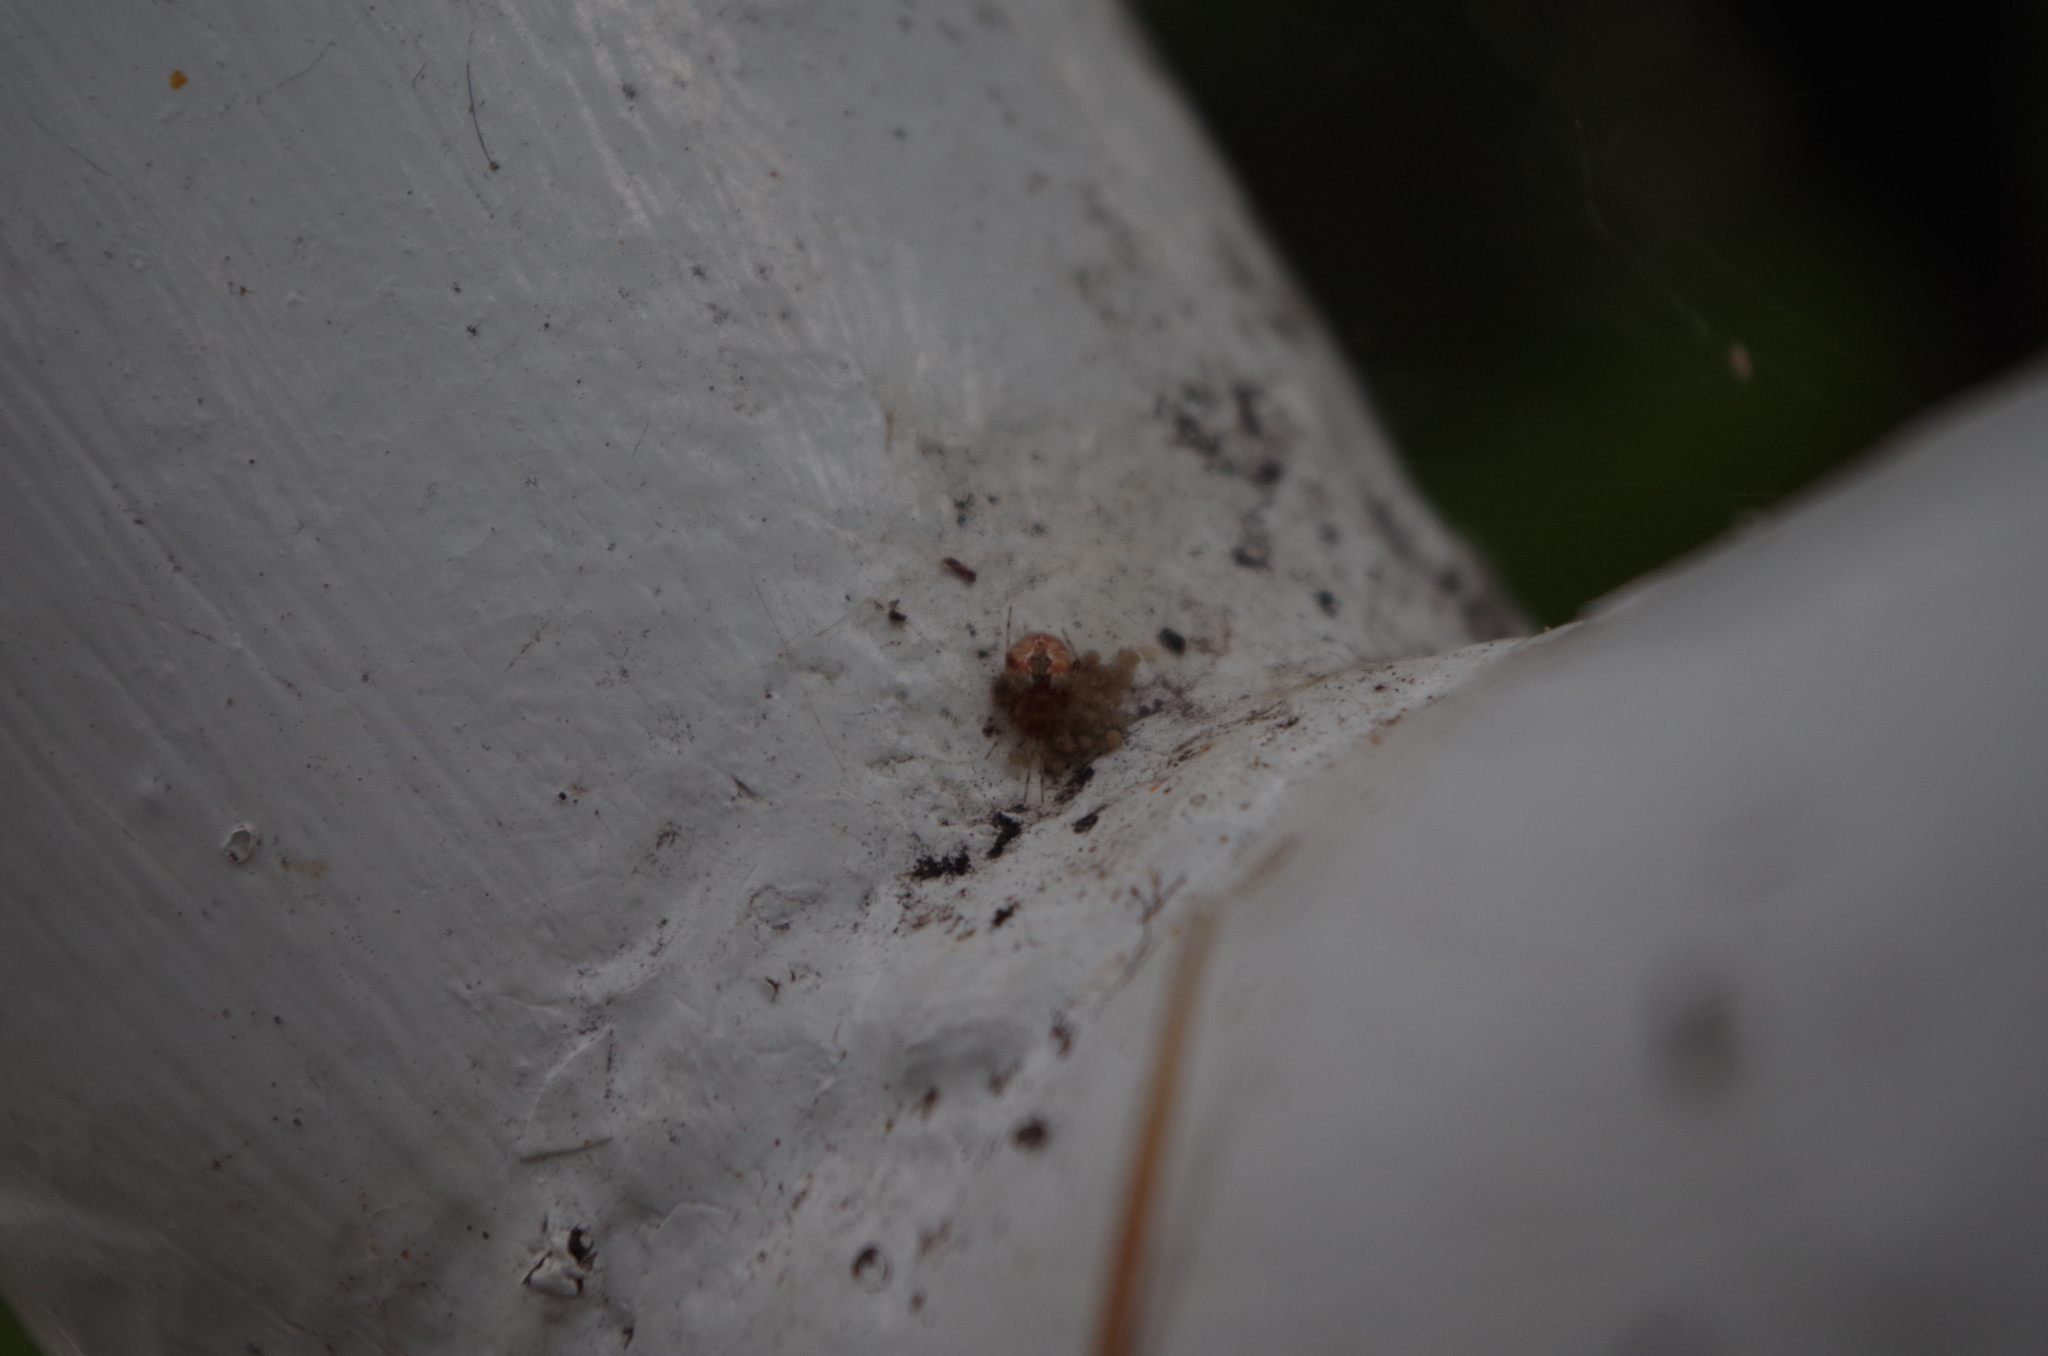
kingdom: Animalia
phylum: Arthropoda
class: Arachnida
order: Araneae
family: Theridiidae
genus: Cryptachaea
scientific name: Cryptachaea veruculata
